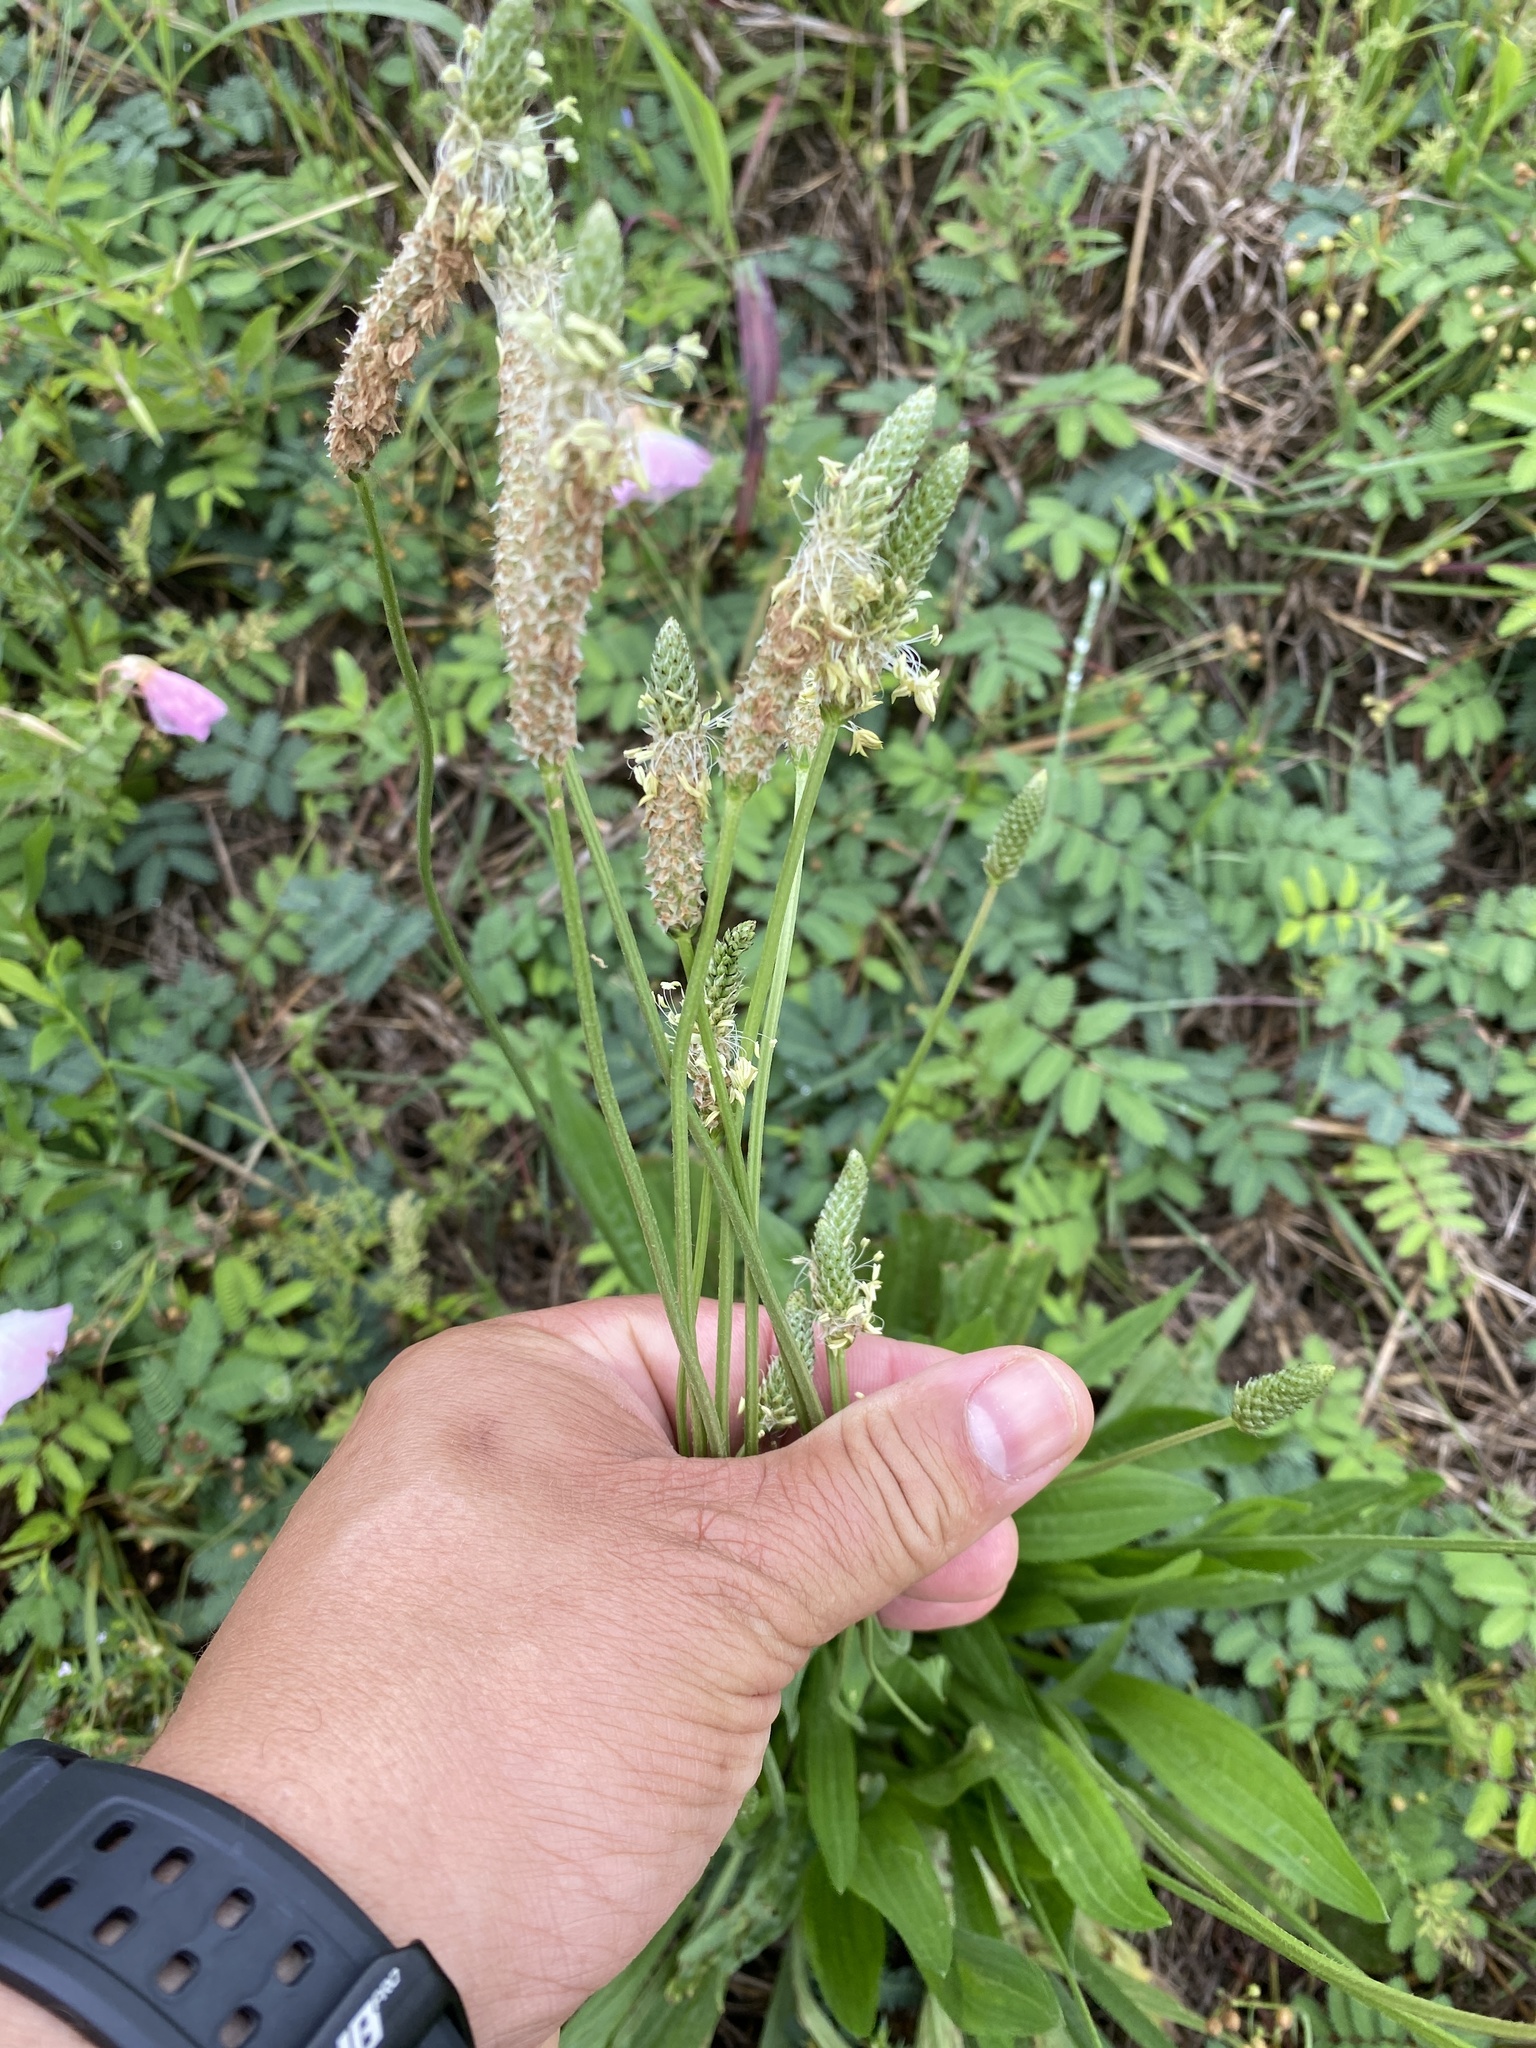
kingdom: Plantae
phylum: Tracheophyta
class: Magnoliopsida
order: Lamiales
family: Plantaginaceae
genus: Plantago
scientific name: Plantago lanceolata
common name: Ribwort plantain
